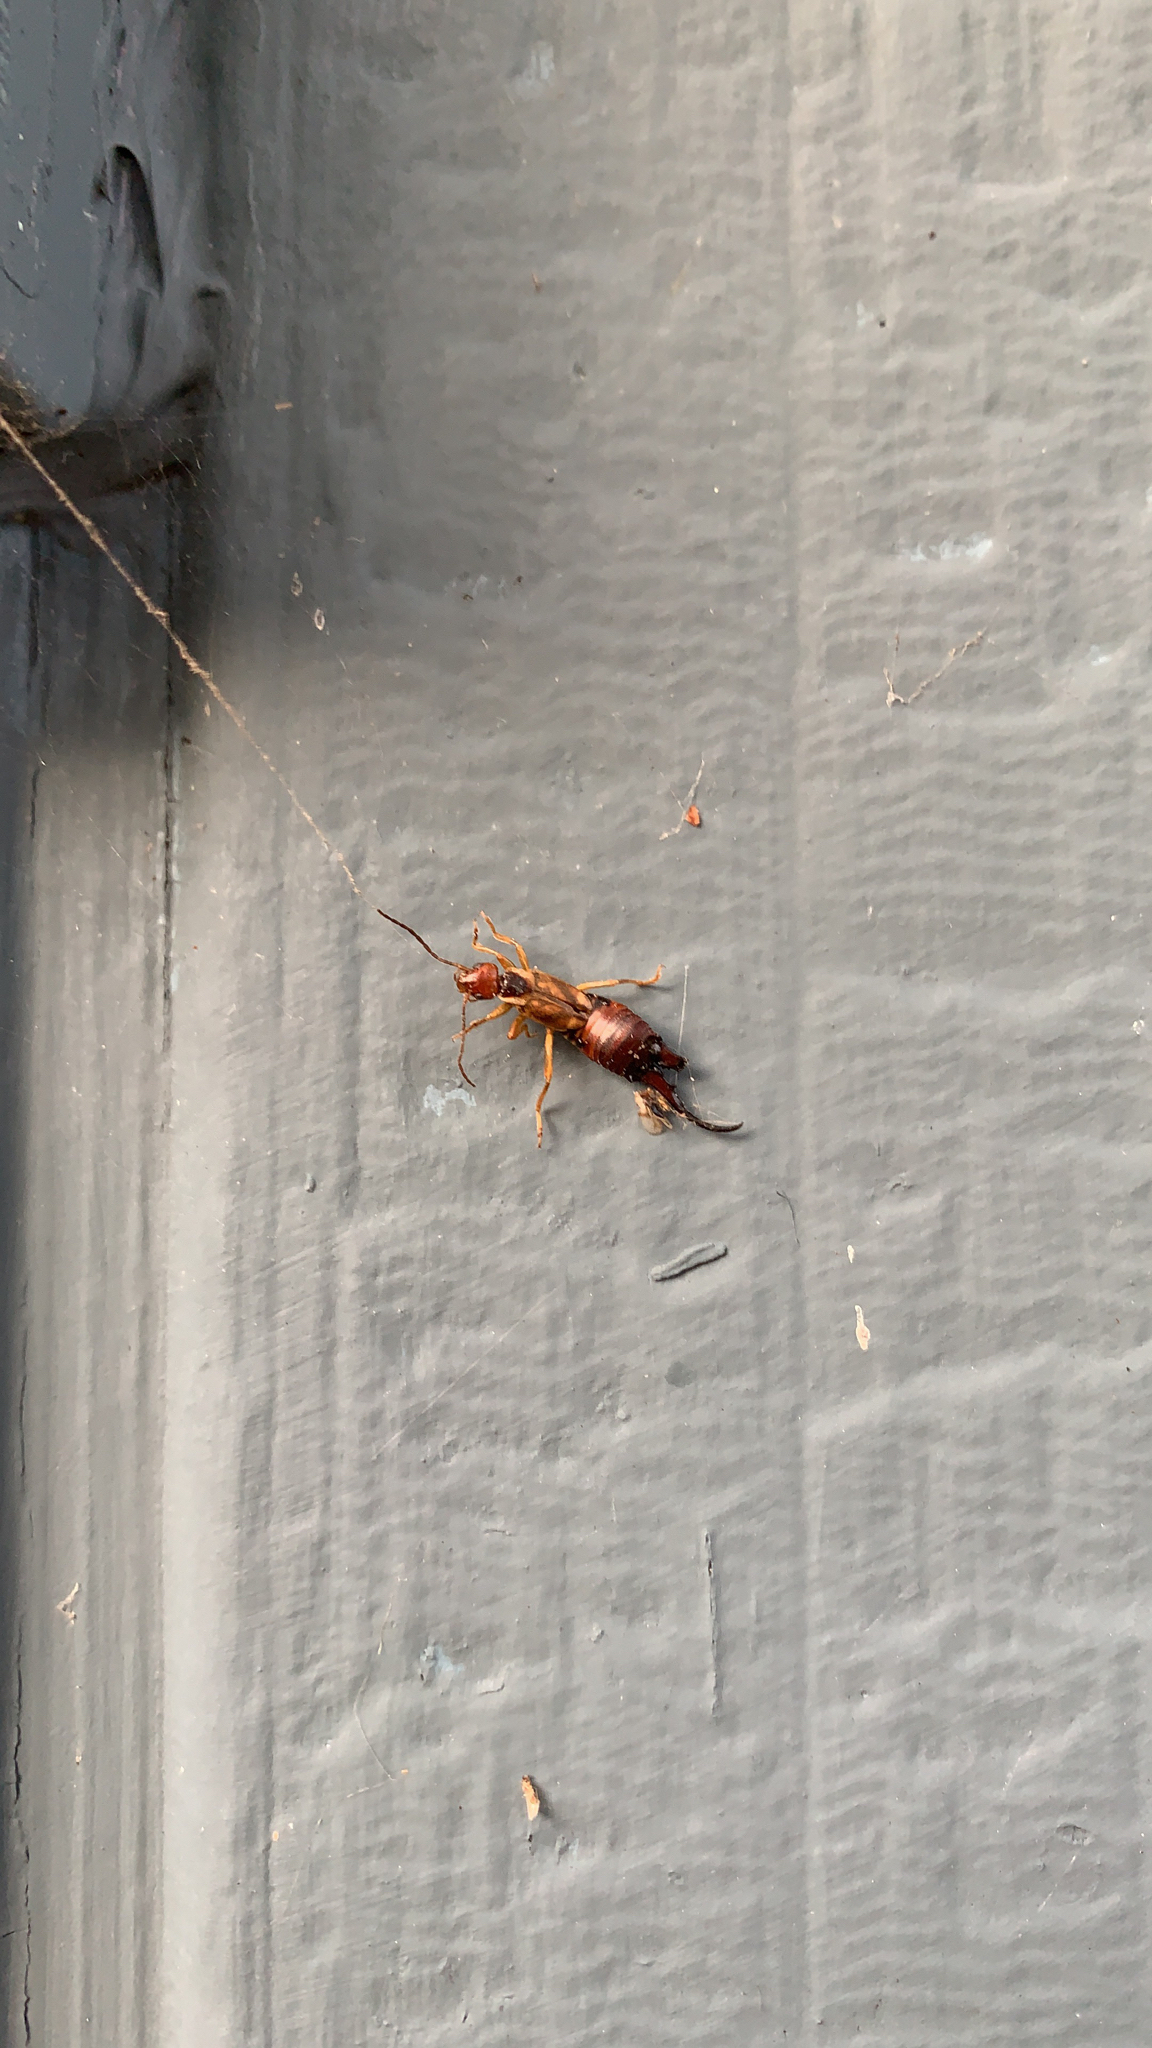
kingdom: Animalia
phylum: Arthropoda
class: Insecta
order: Dermaptera
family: Forficulidae
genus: Forficula
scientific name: Forficula
